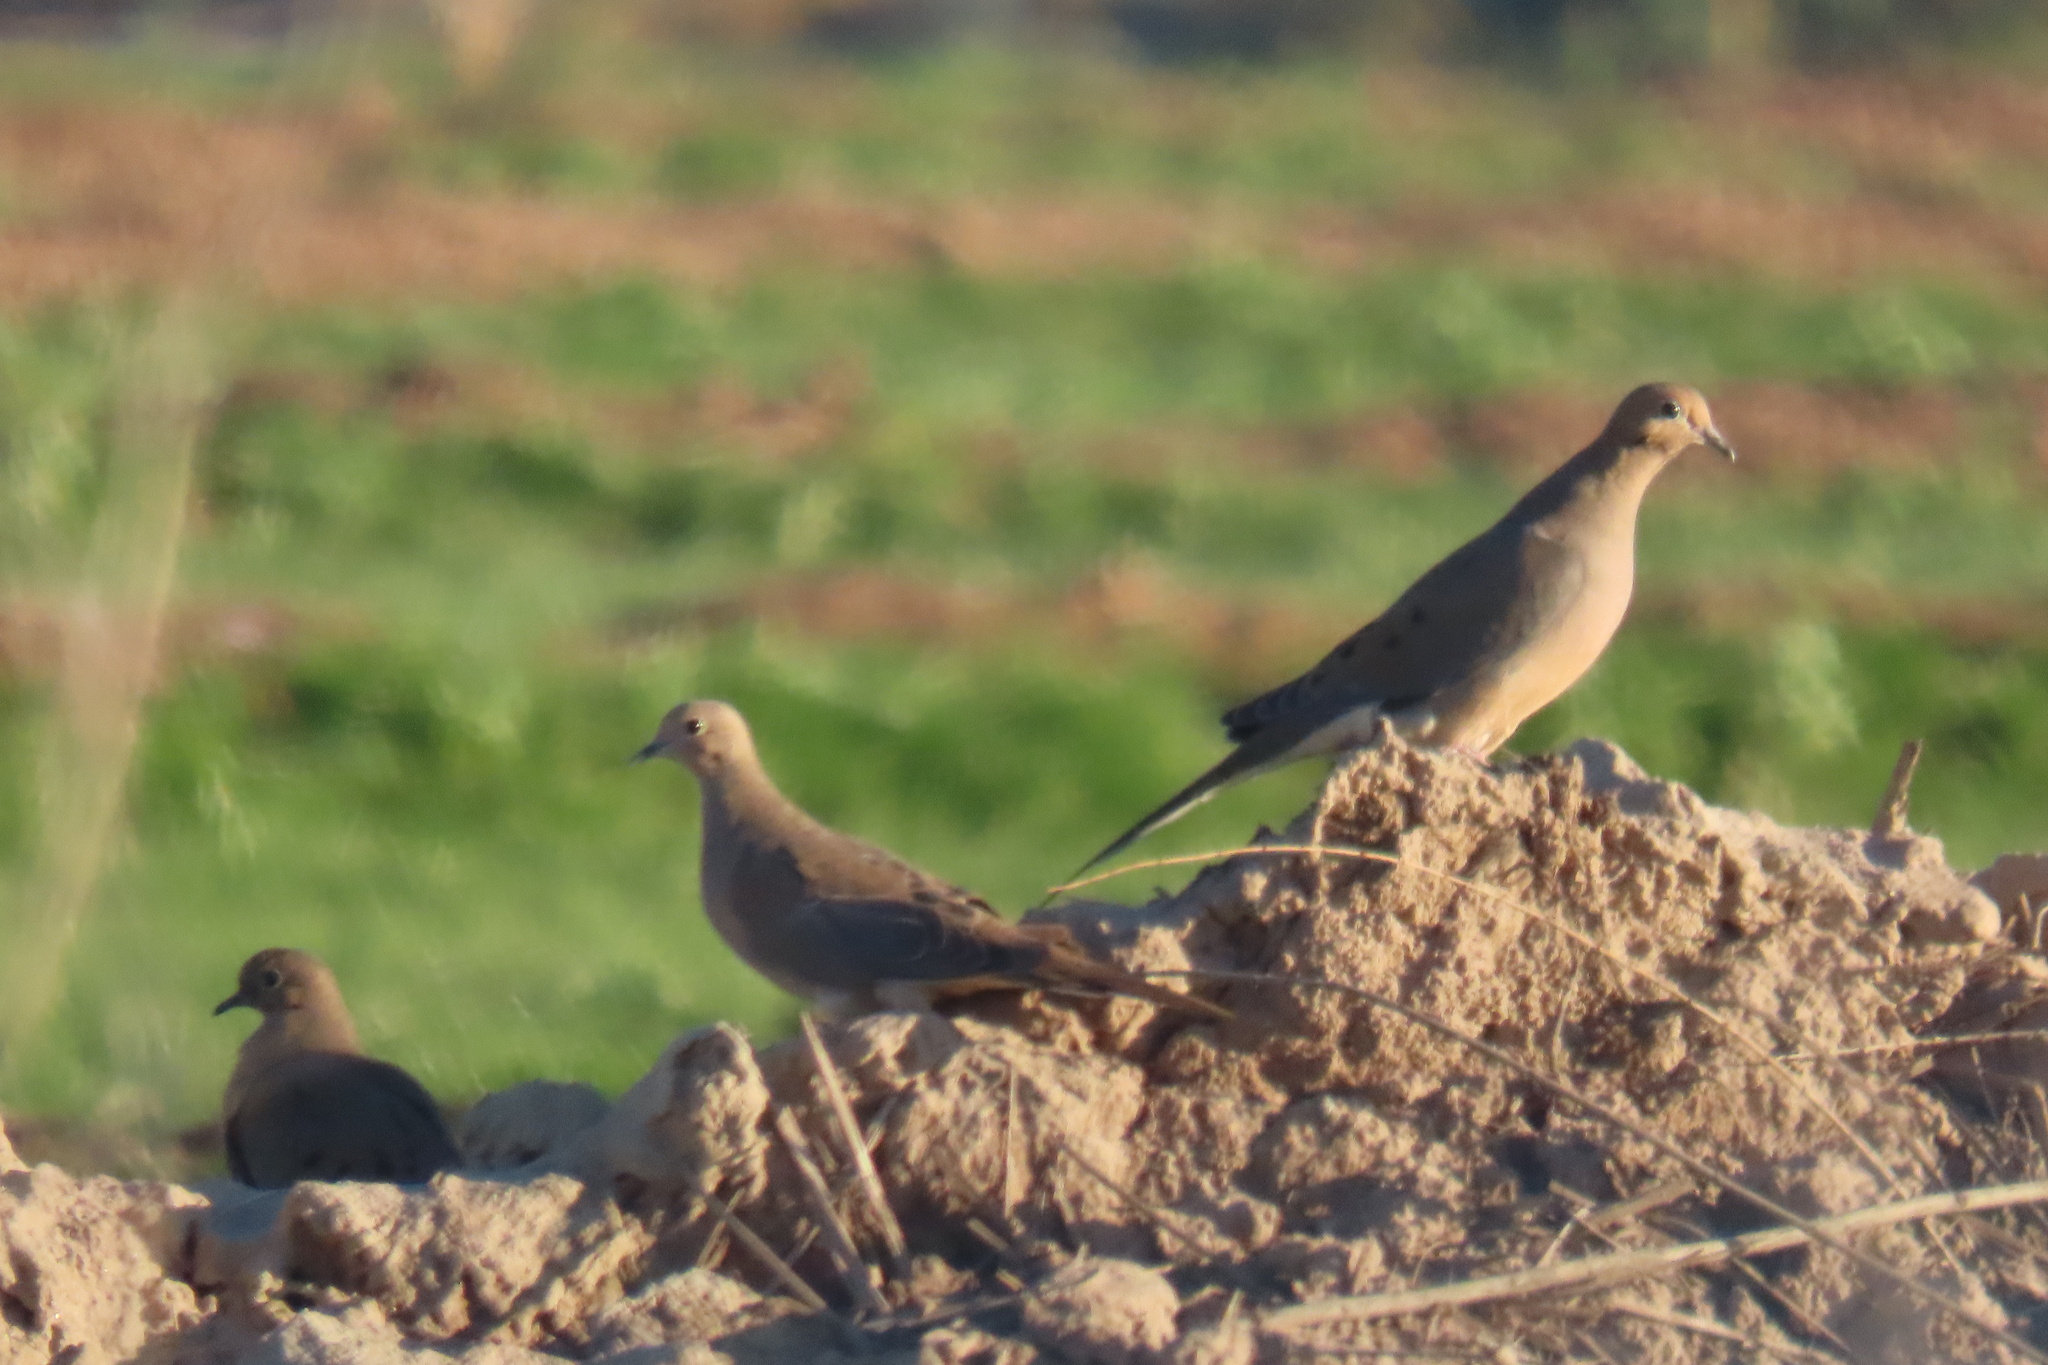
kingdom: Animalia
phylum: Chordata
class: Aves
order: Columbiformes
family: Columbidae
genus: Zenaida
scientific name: Zenaida macroura
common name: Mourning dove
